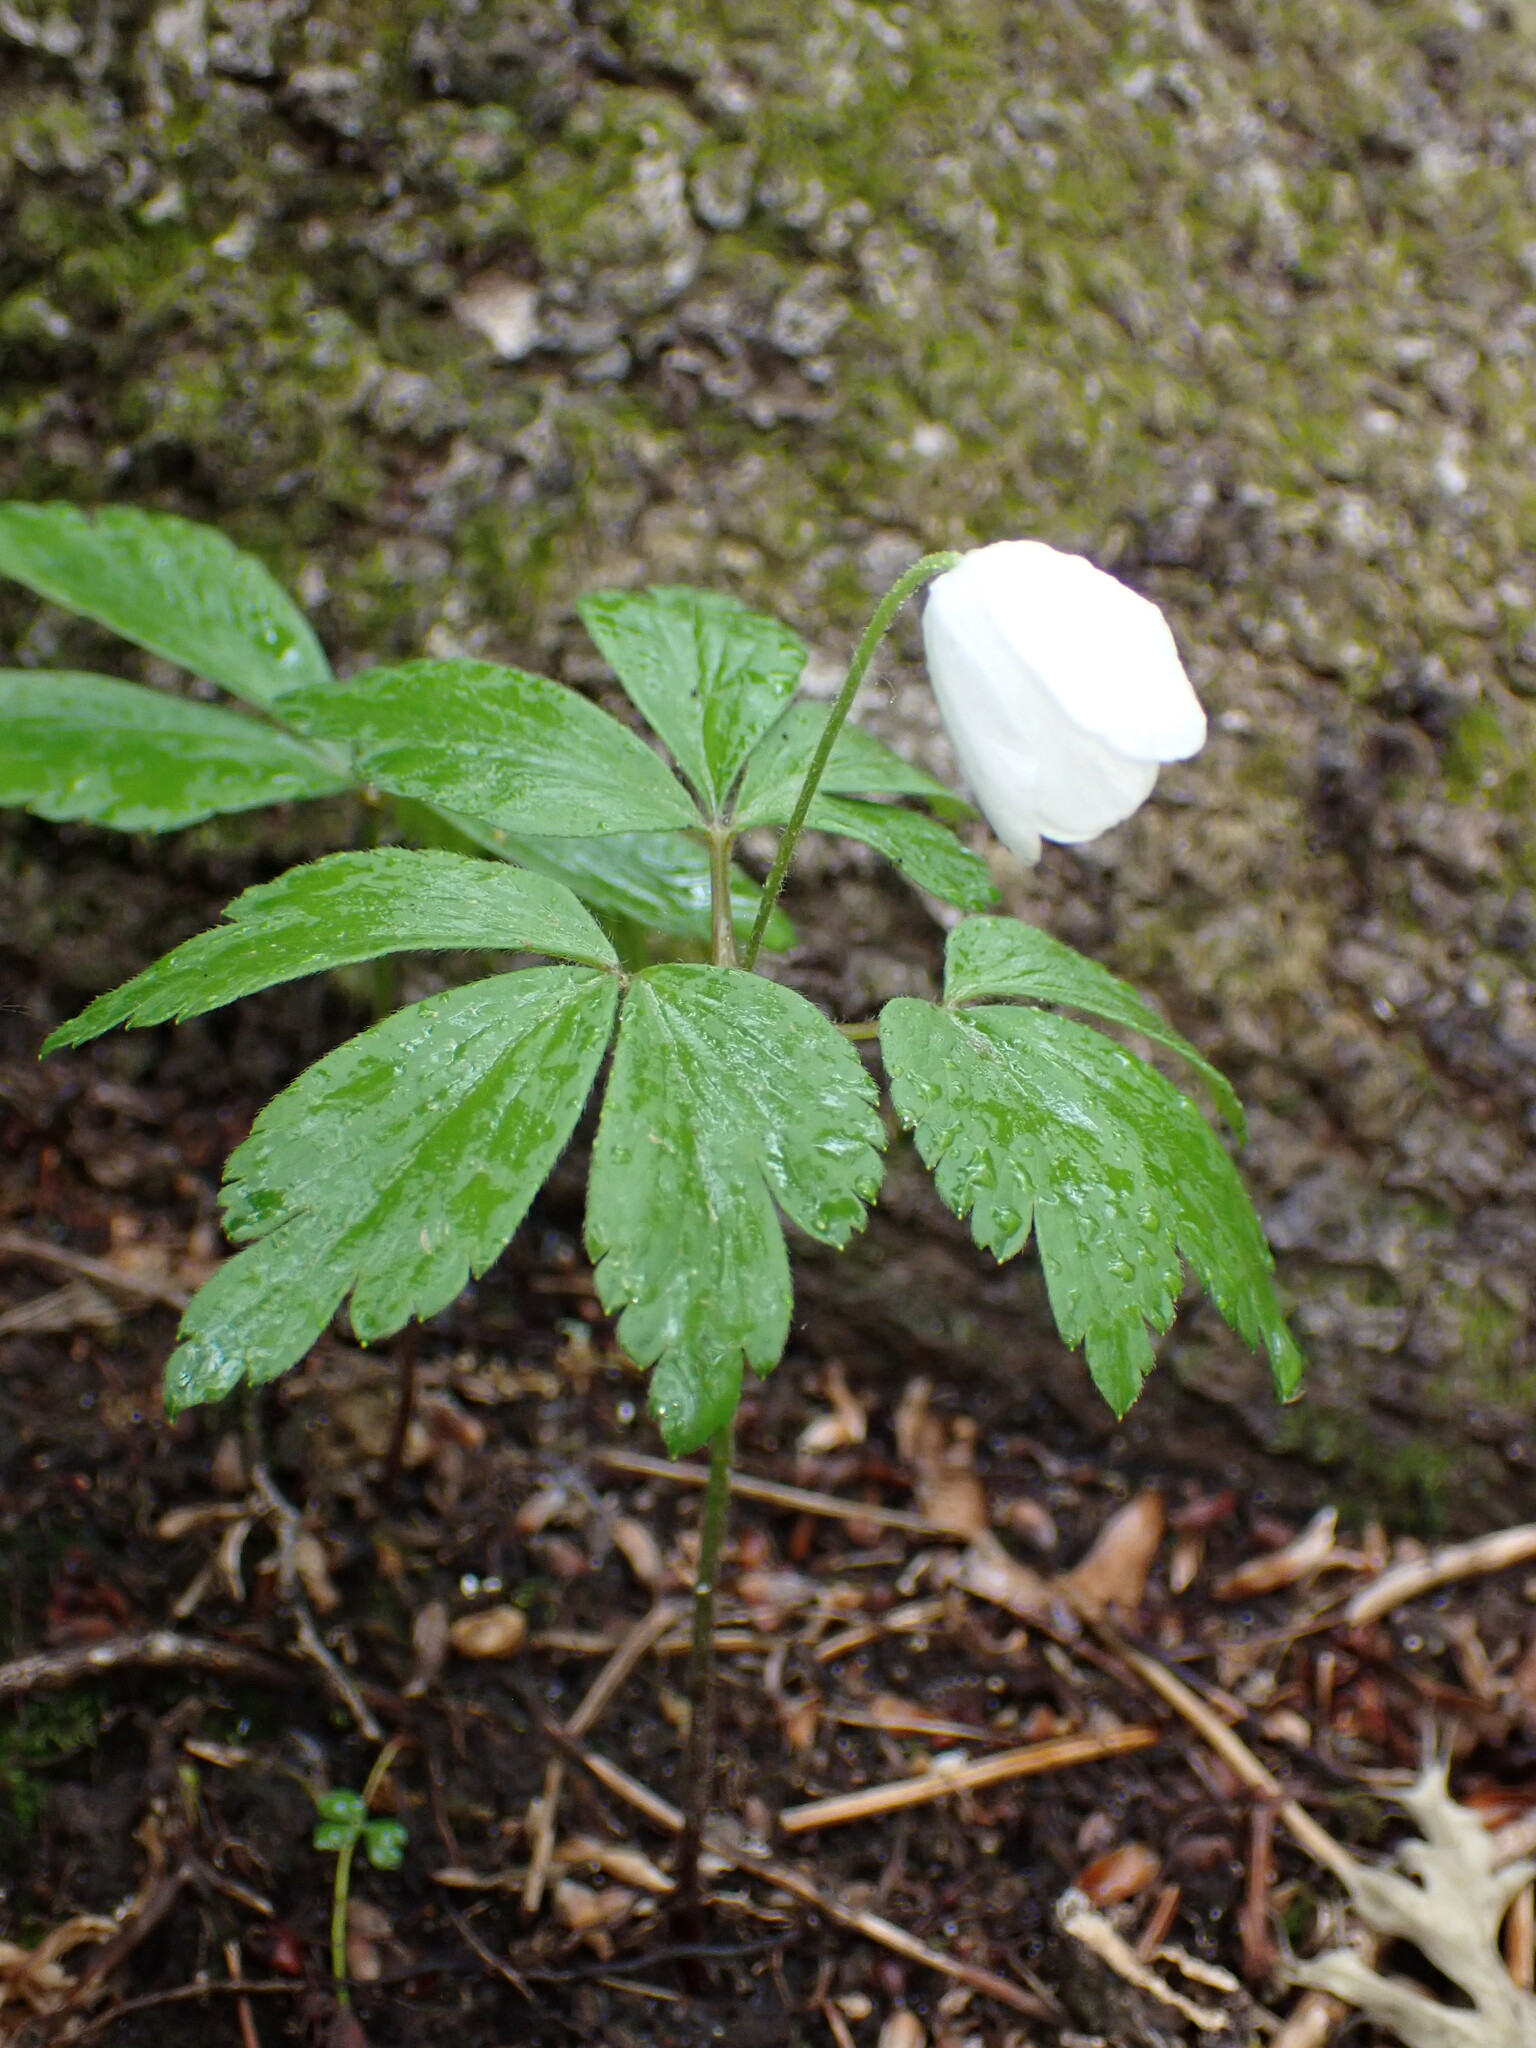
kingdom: Plantae
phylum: Tracheophyta
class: Magnoliopsida
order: Ranunculales
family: Ranunculaceae
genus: Anemone
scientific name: Anemone quinquefolia
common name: Wood anemone
